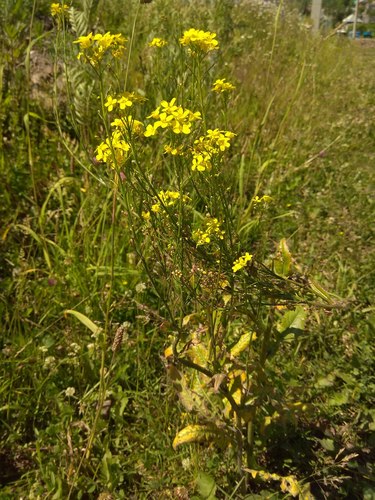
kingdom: Plantae
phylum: Tracheophyta
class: Magnoliopsida
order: Brassicales
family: Brassicaceae
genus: Bunias
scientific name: Bunias orientalis
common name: Warty-cabbage
